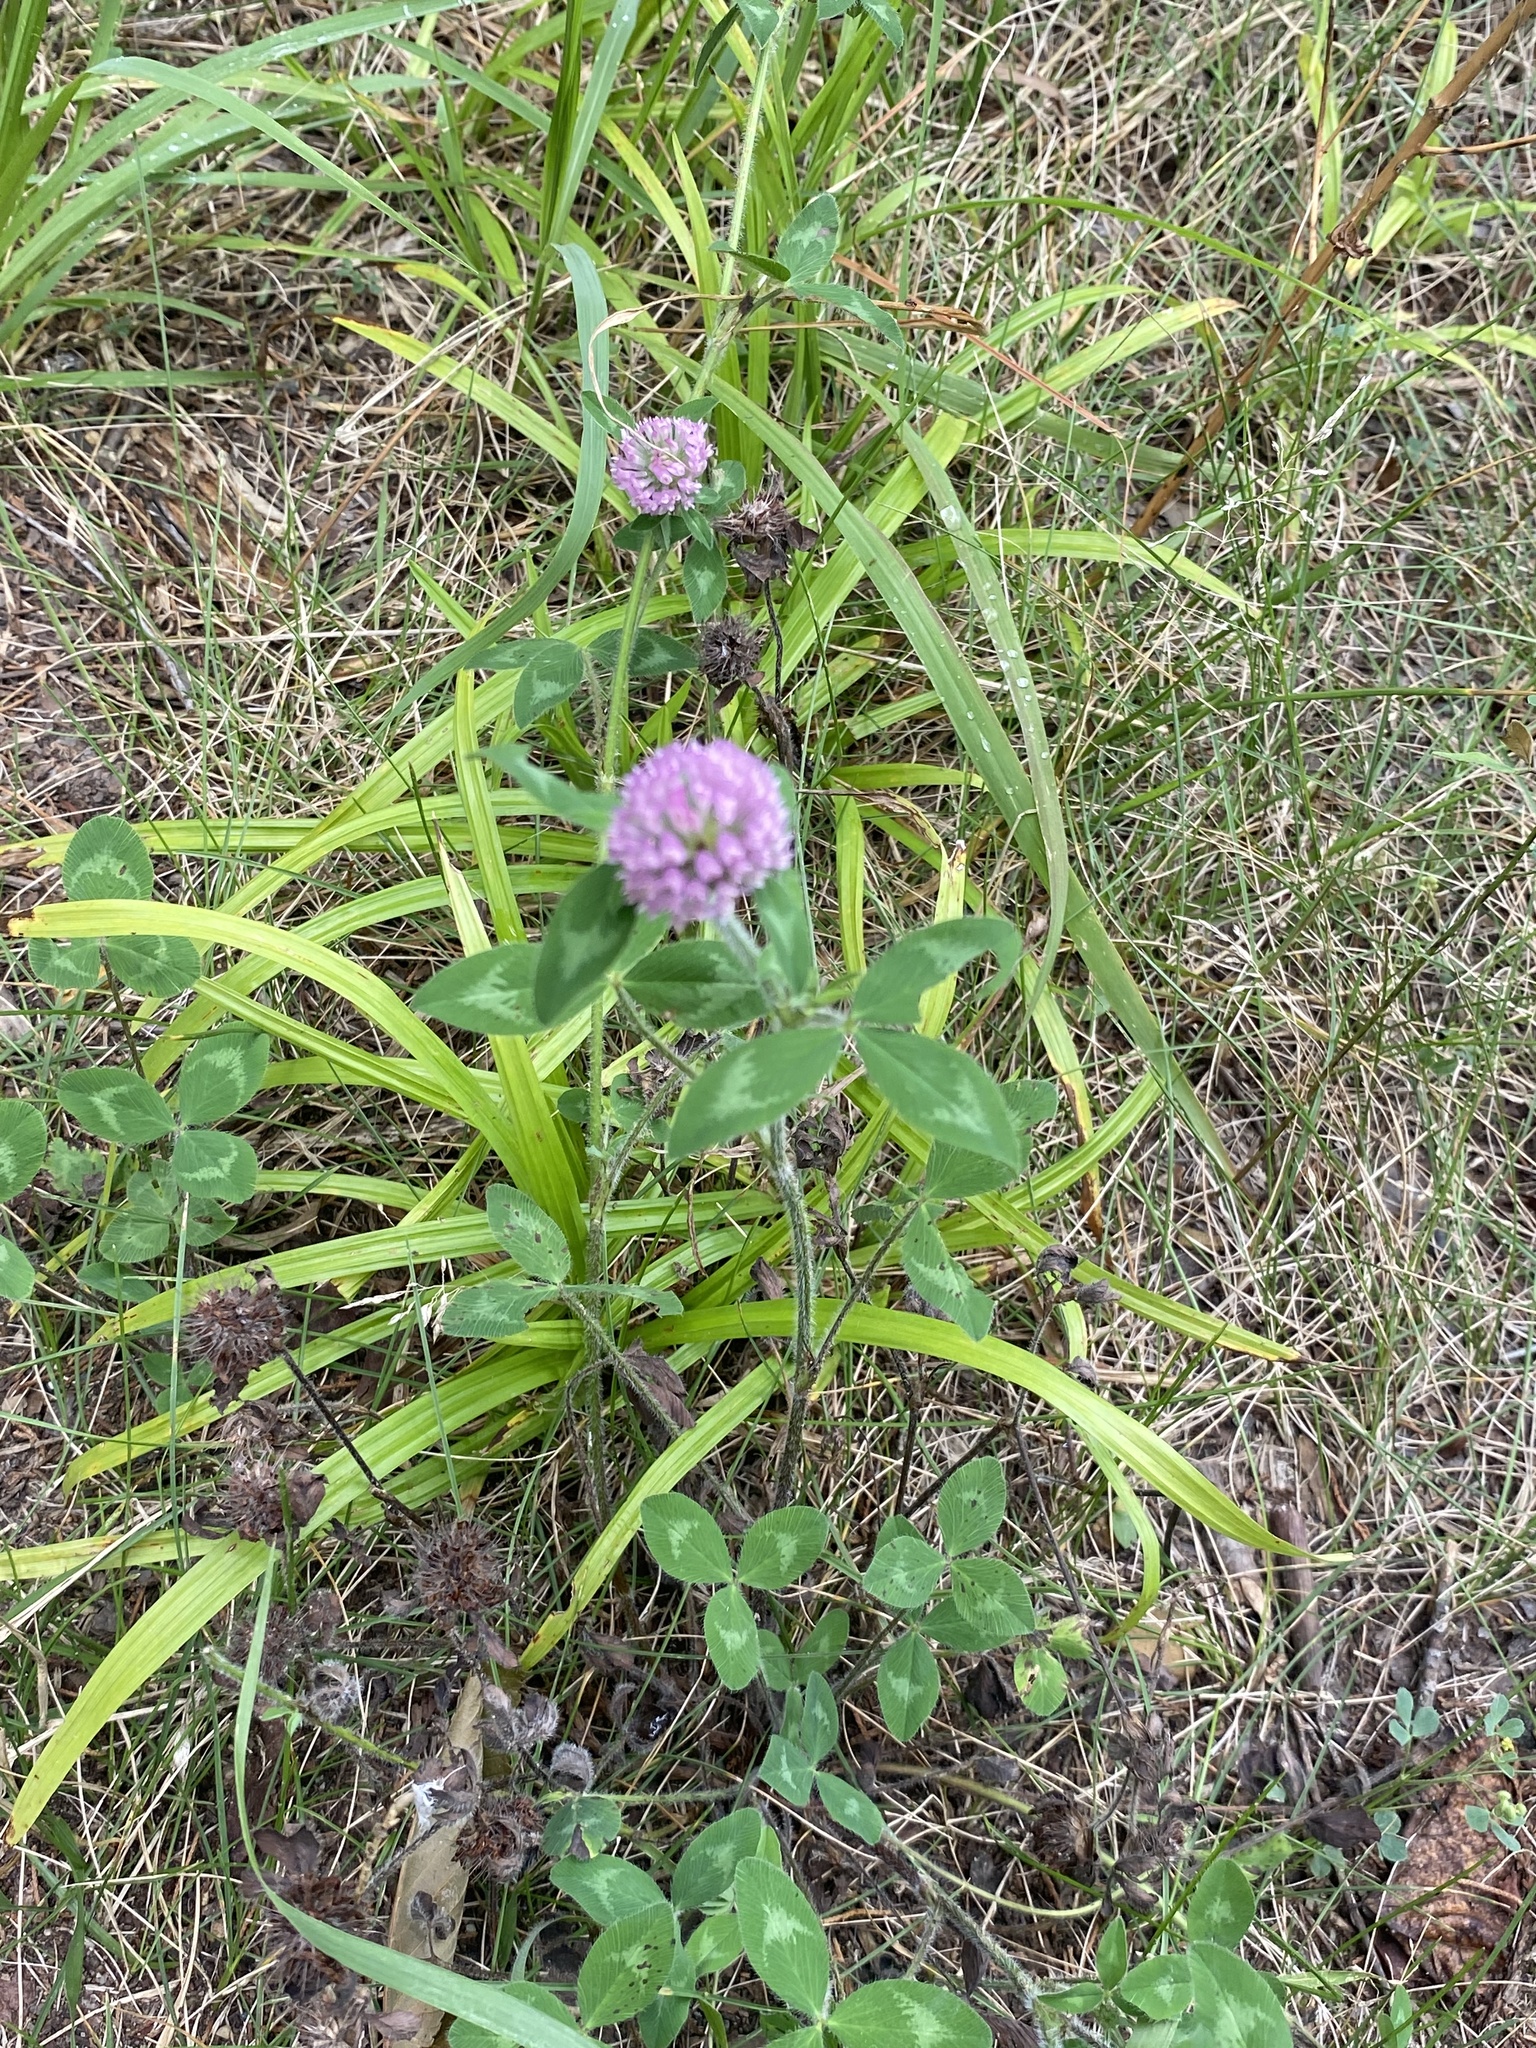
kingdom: Plantae
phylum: Tracheophyta
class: Magnoliopsida
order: Fabales
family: Fabaceae
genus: Trifolium
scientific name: Trifolium pratense
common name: Red clover
